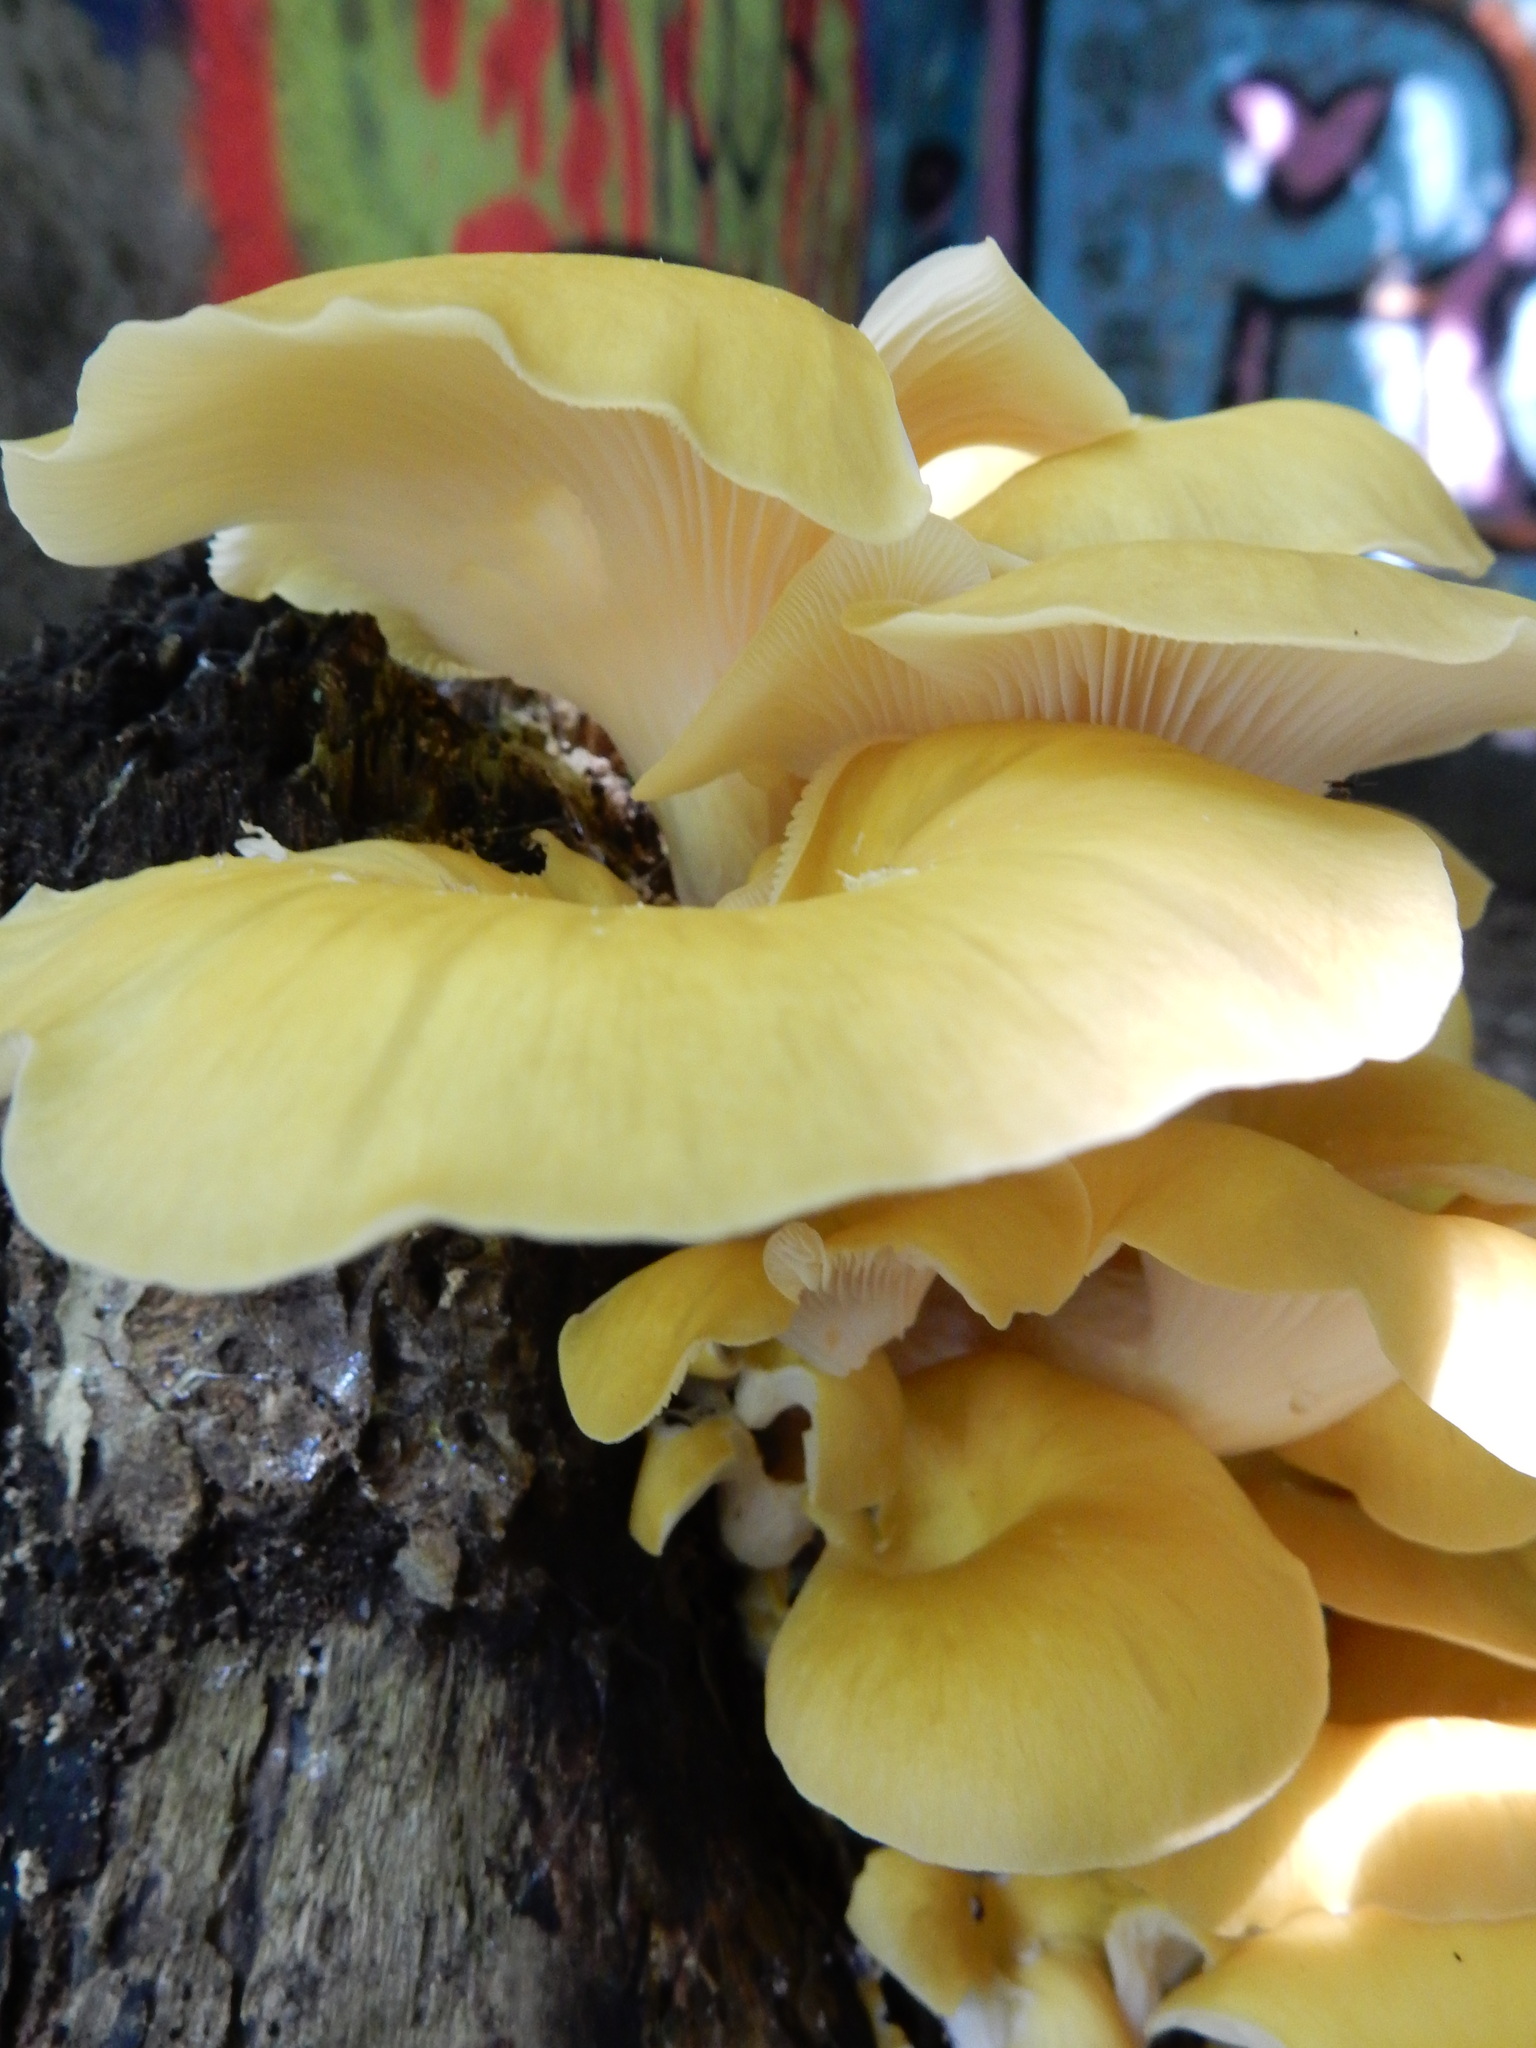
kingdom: Fungi
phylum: Basidiomycota
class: Agaricomycetes
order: Agaricales
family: Pleurotaceae
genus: Pleurotus
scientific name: Pleurotus citrinopileatus
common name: Golden oyster mushroom
